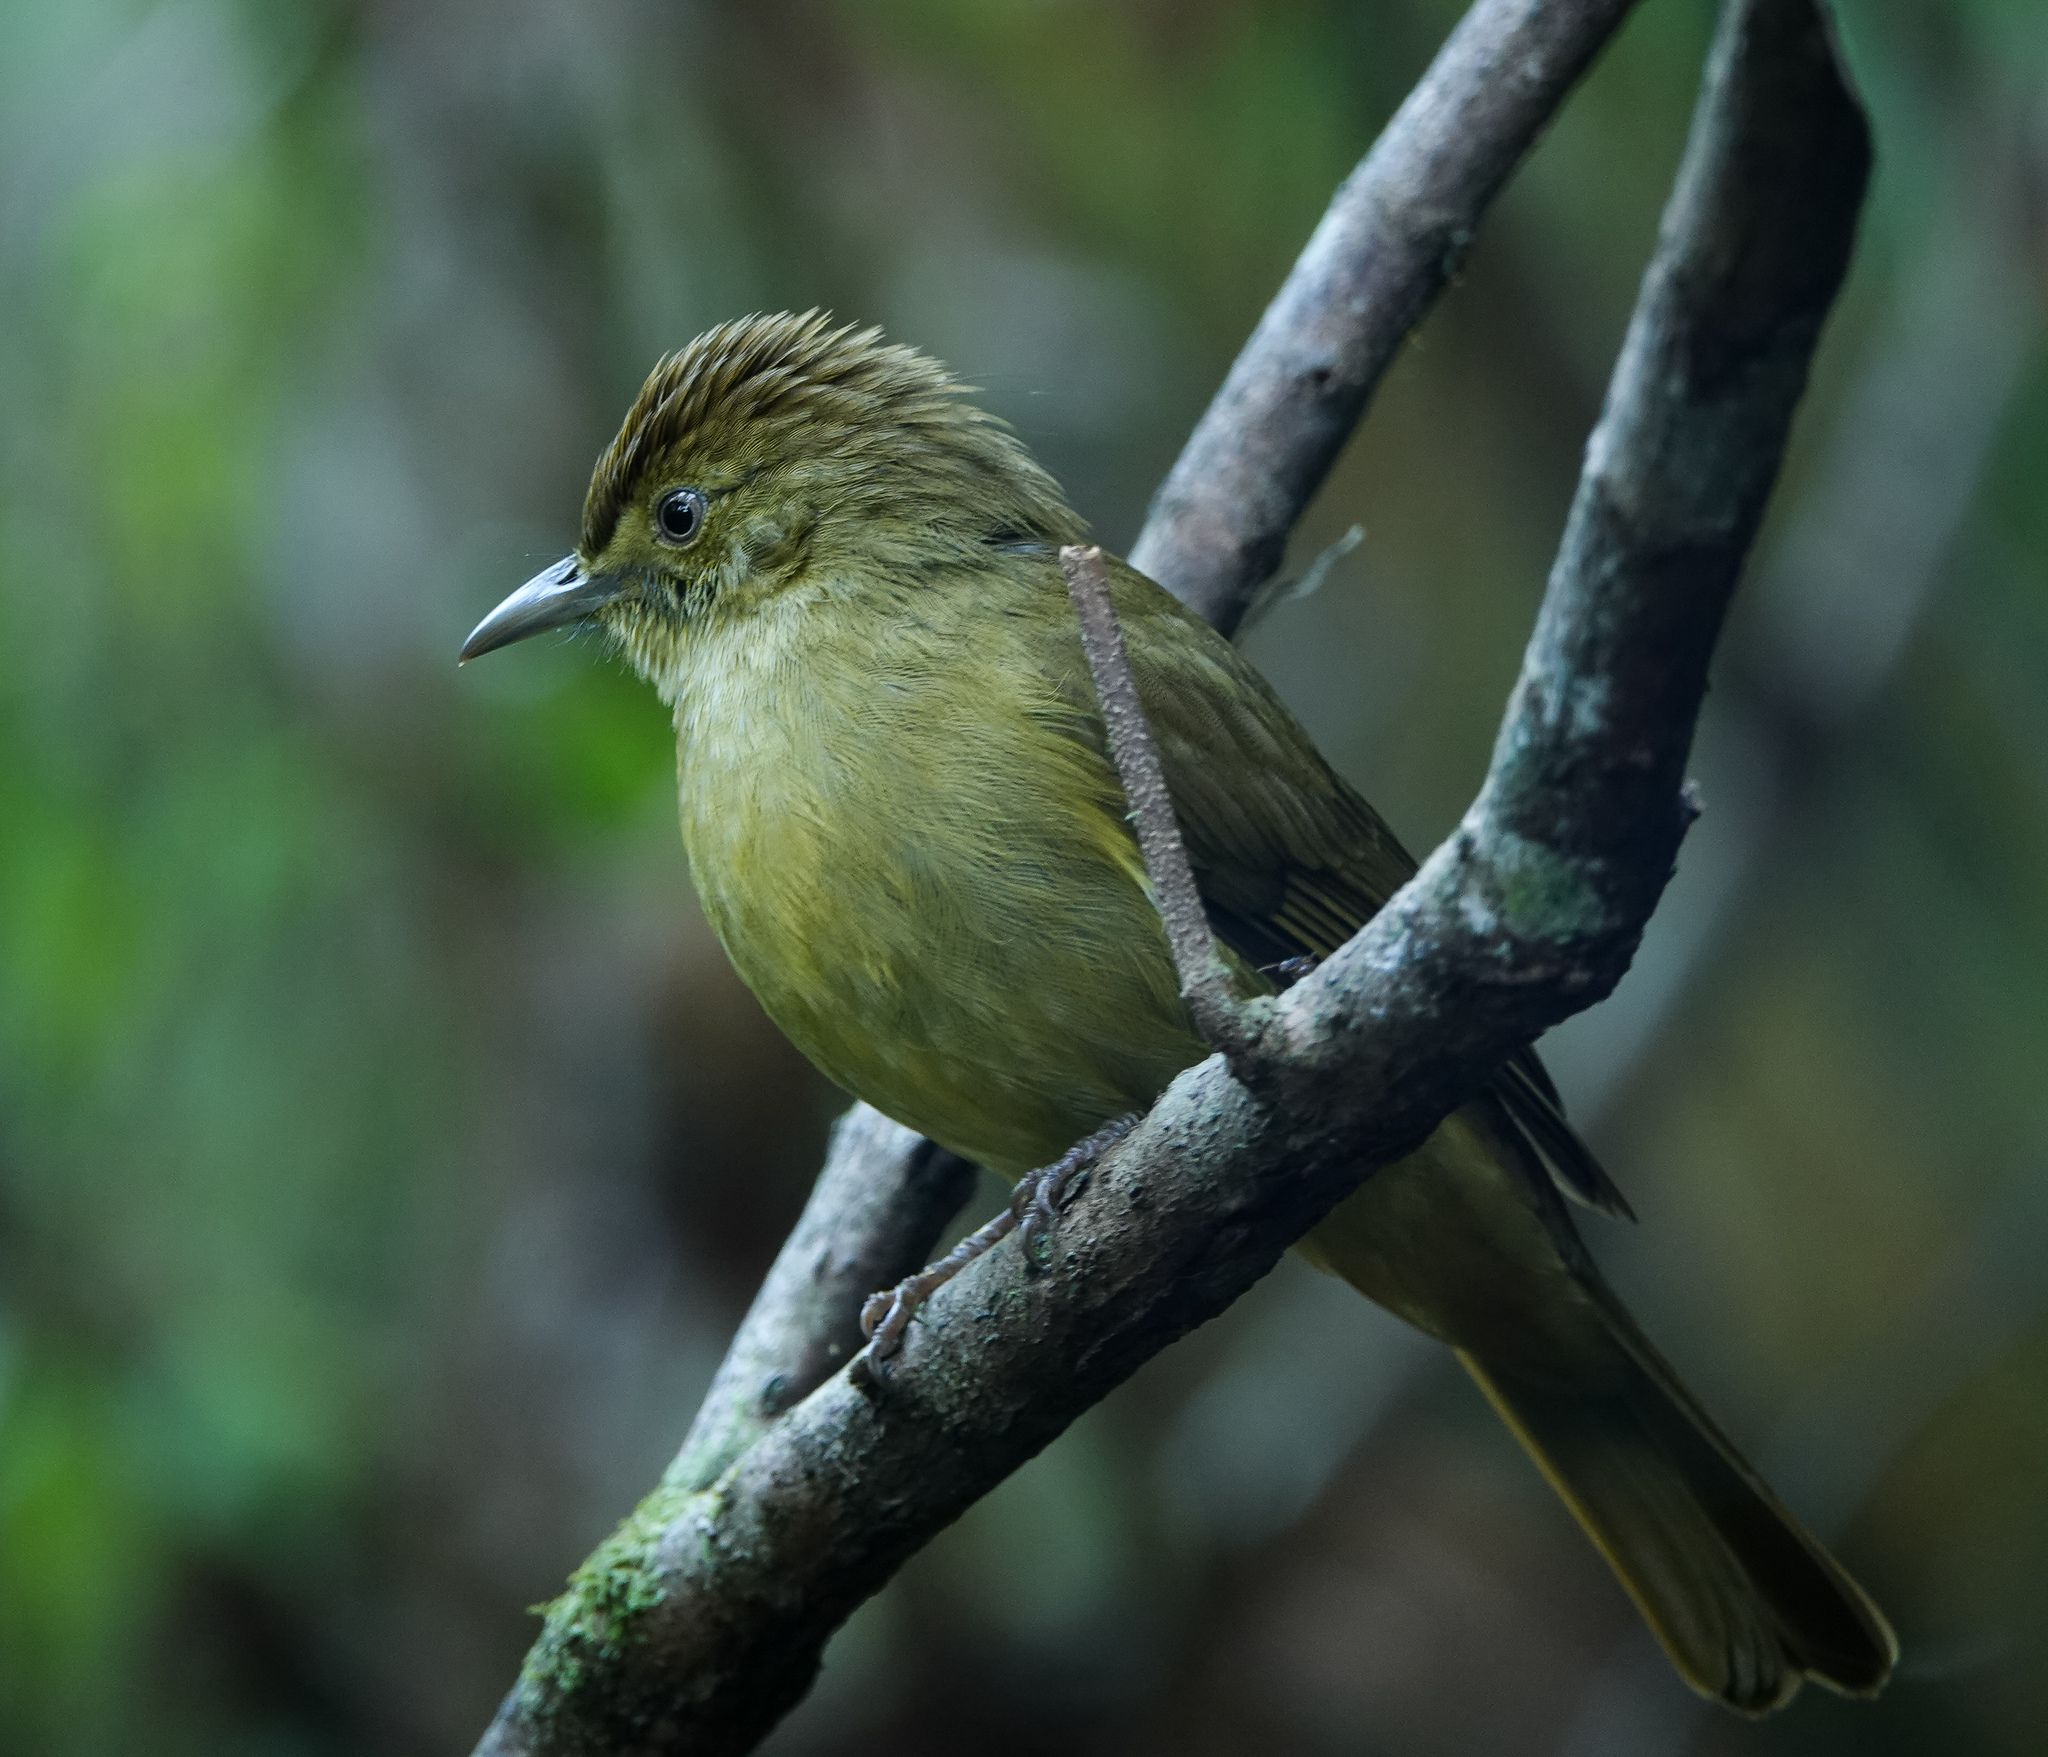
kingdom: Animalia
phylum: Chordata
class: Aves
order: Passeriformes
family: Pycnonotidae
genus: Iole
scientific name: Iole virescens
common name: Olive bulbul
